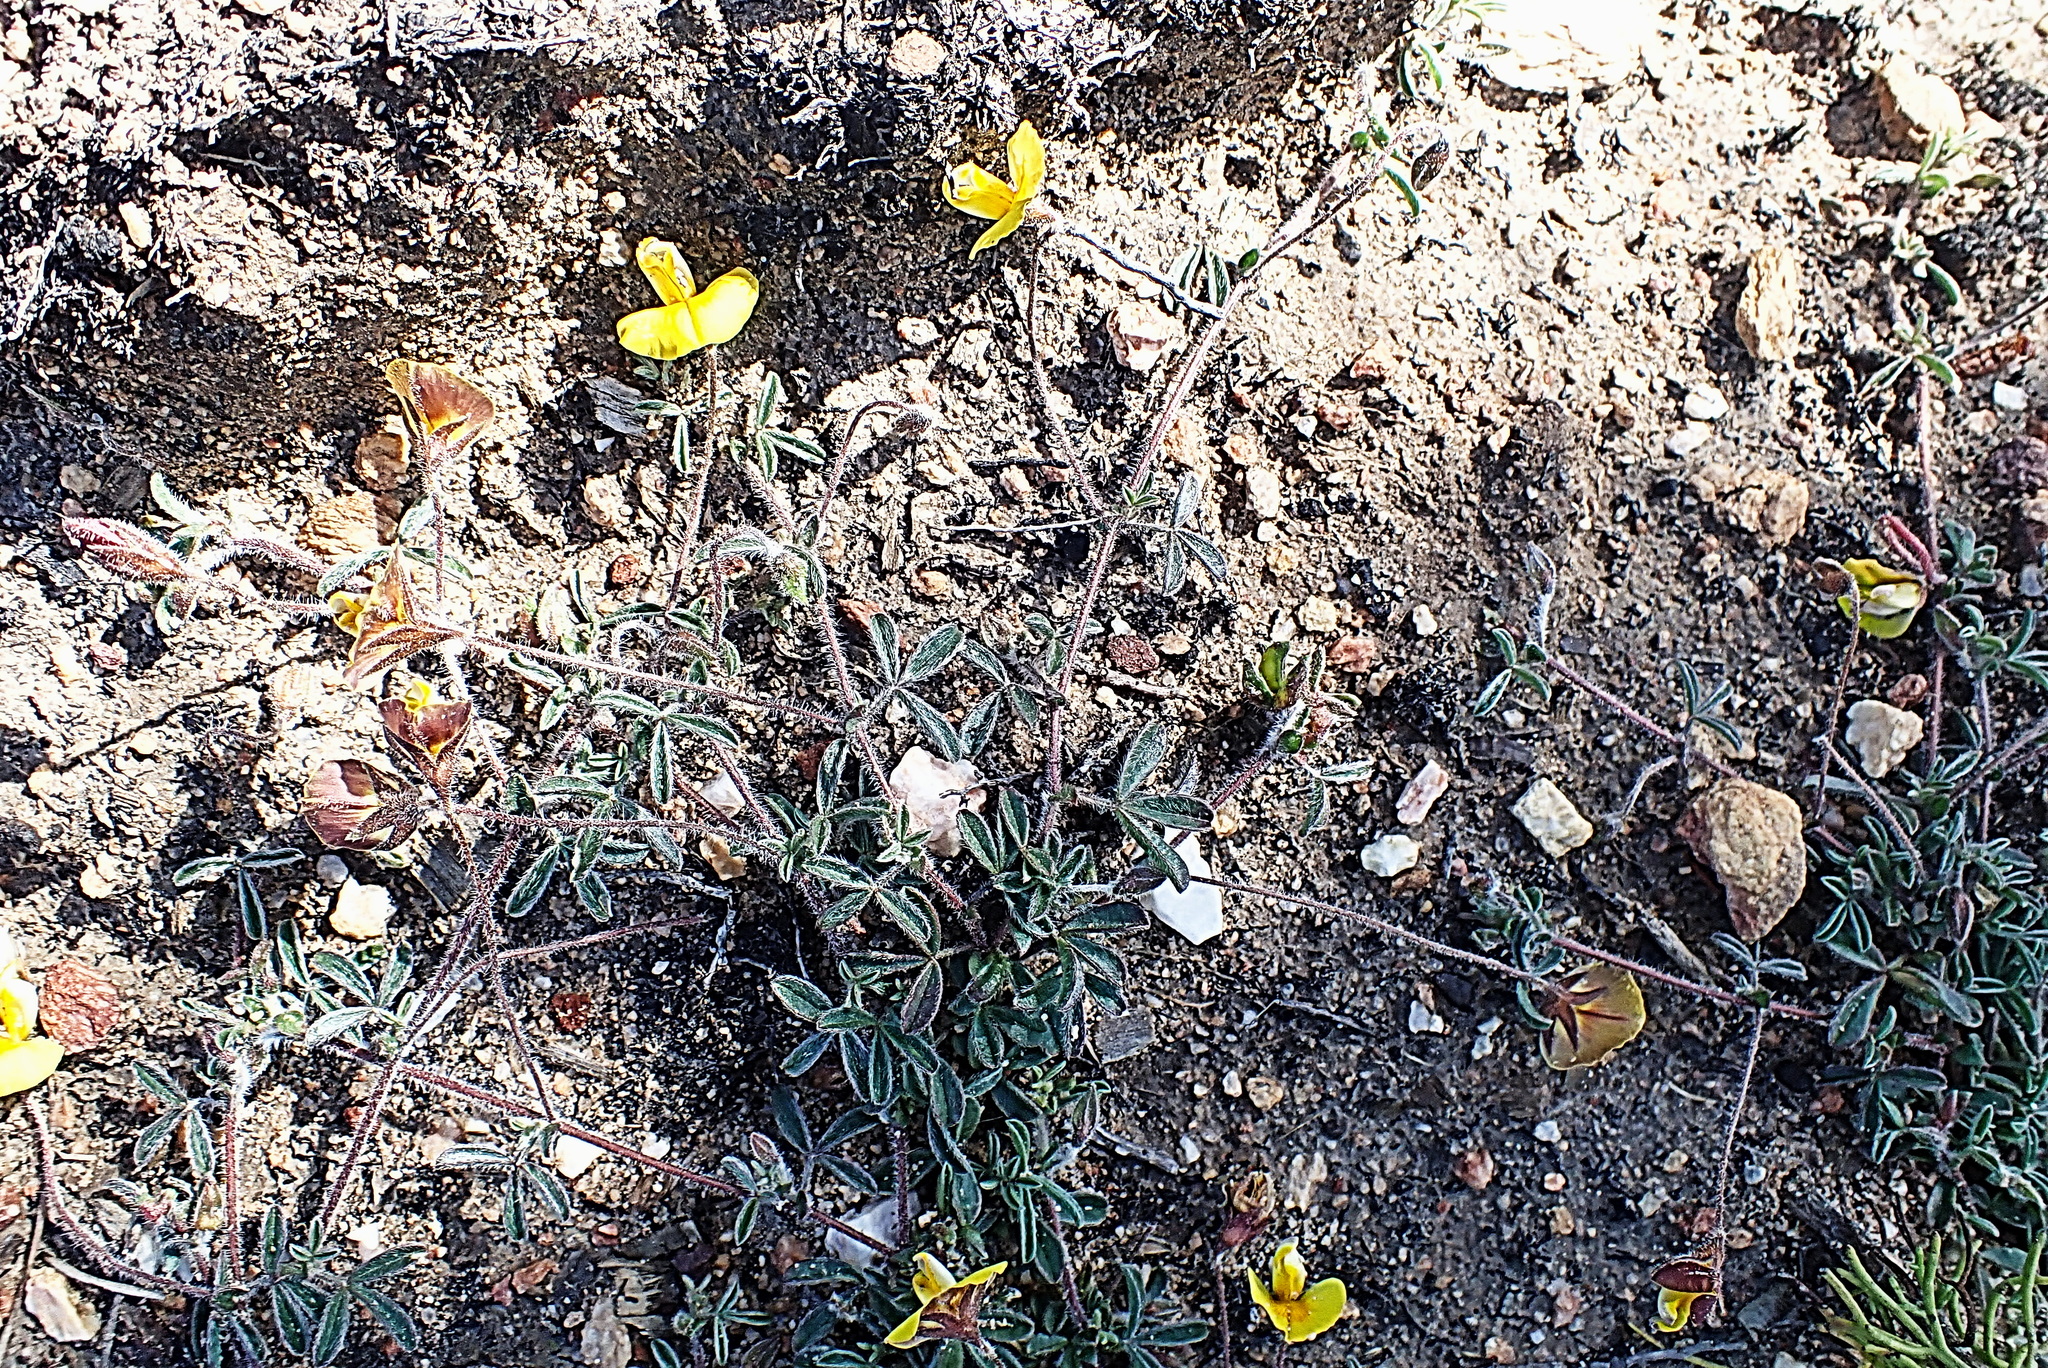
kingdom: Plantae
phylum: Tracheophyta
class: Magnoliopsida
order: Fabales
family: Fabaceae
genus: Lotononis
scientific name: Lotononis elongata
